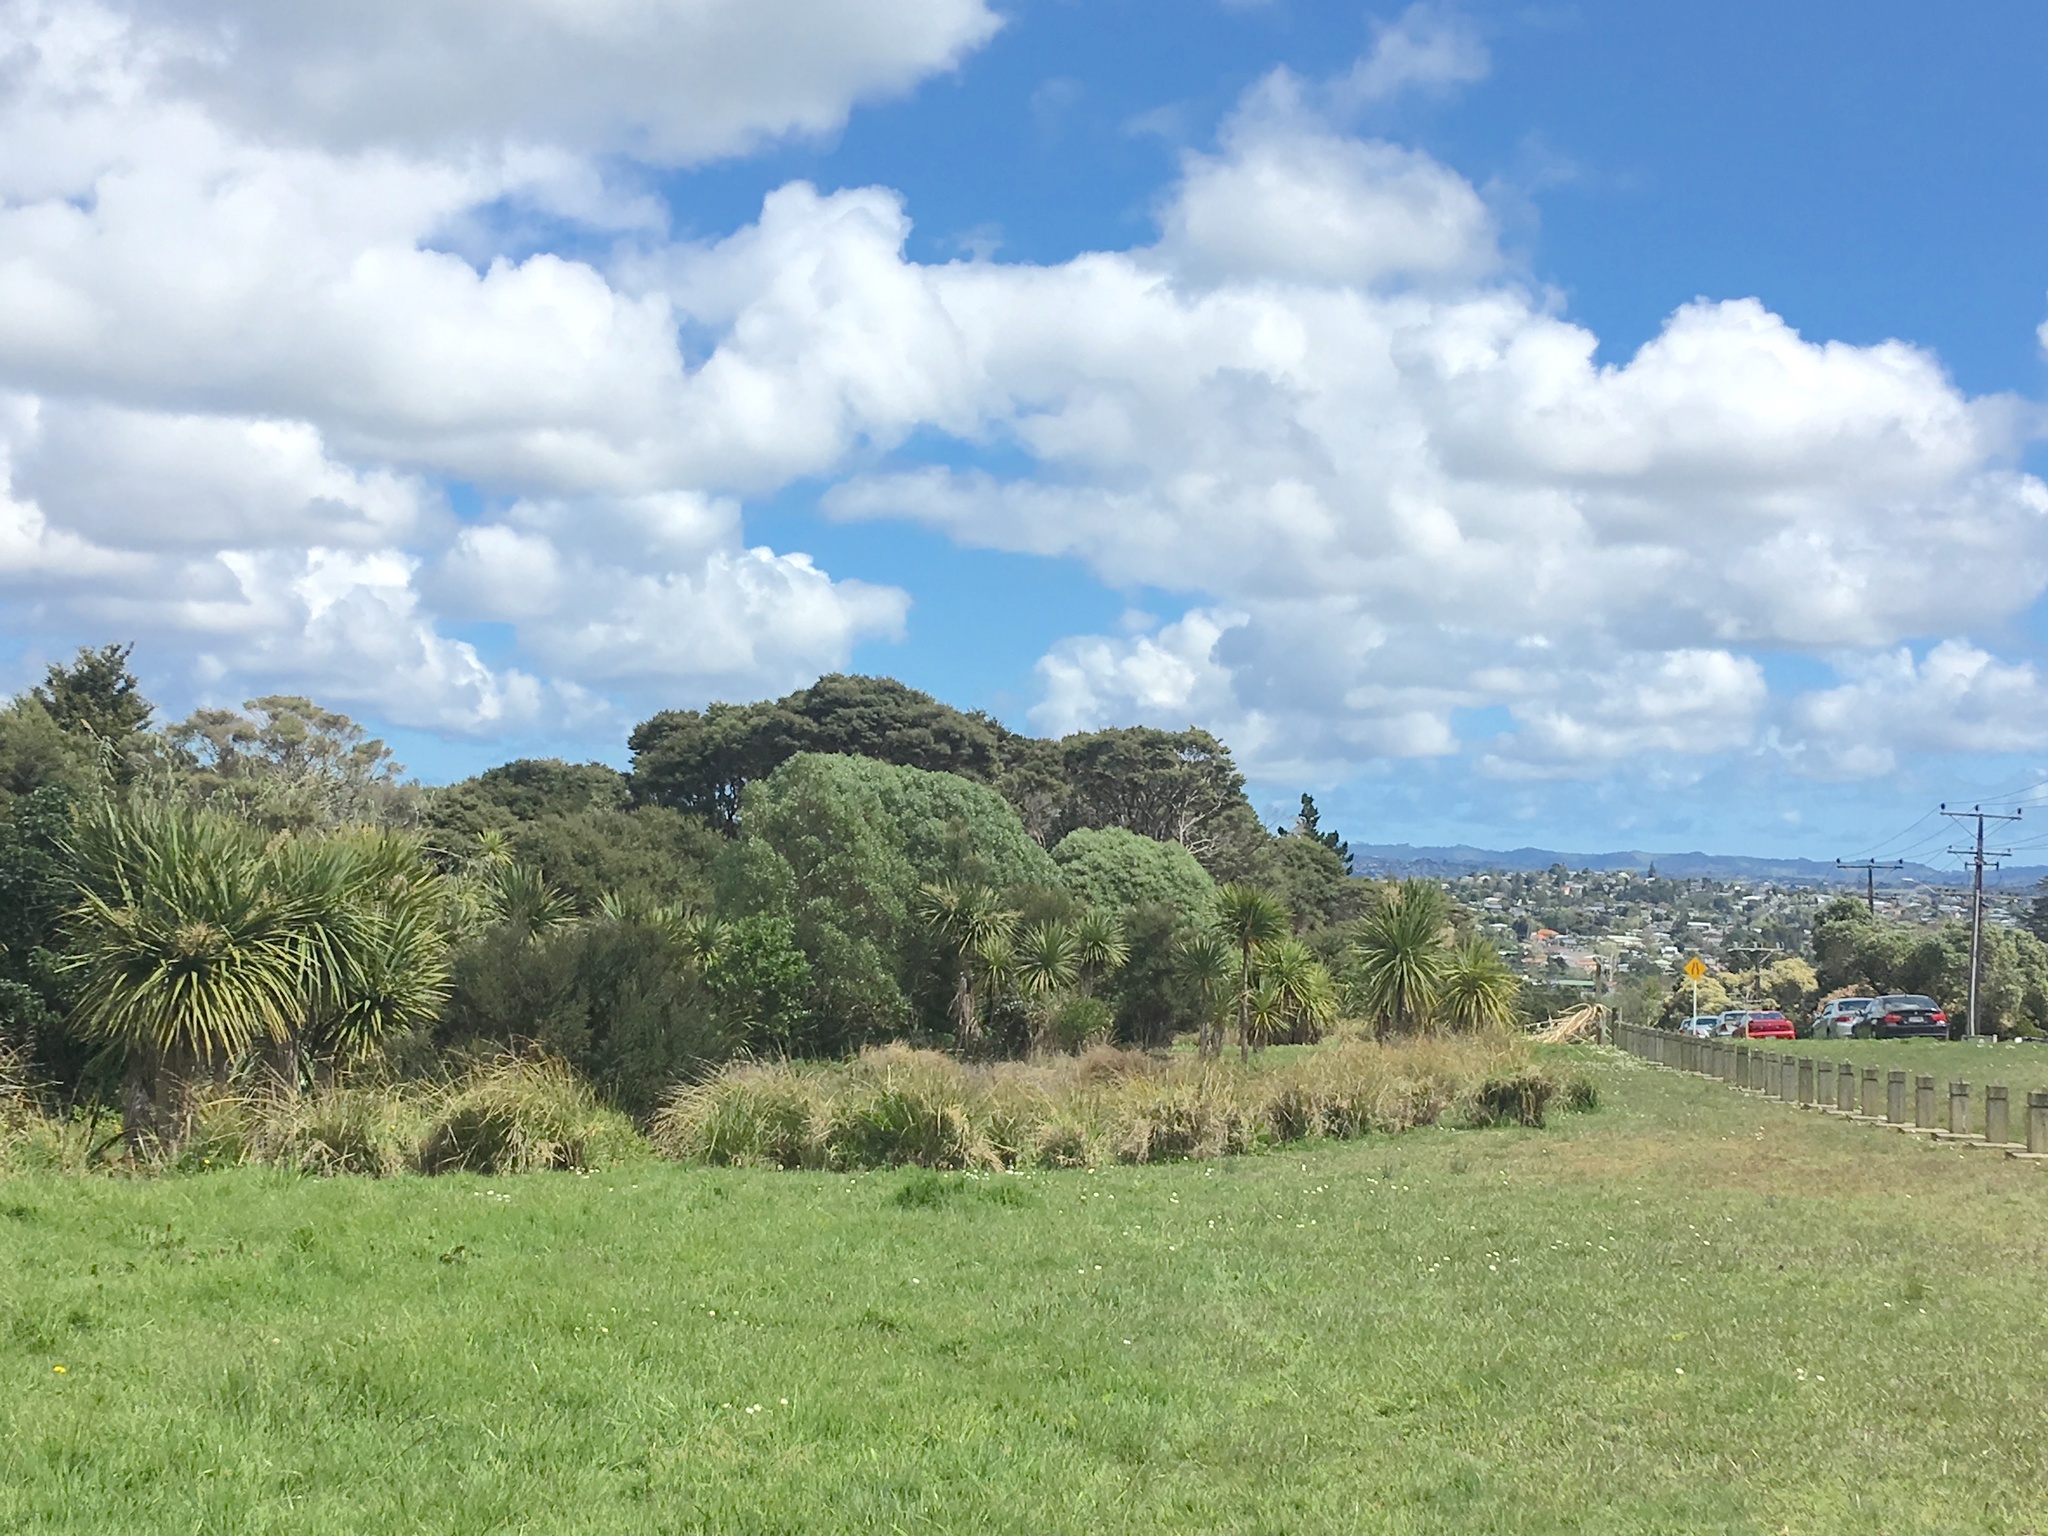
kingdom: Plantae
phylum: Tracheophyta
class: Liliopsida
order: Asparagales
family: Asparagaceae
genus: Cordyline
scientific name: Cordyline australis
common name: Cabbage-palm
